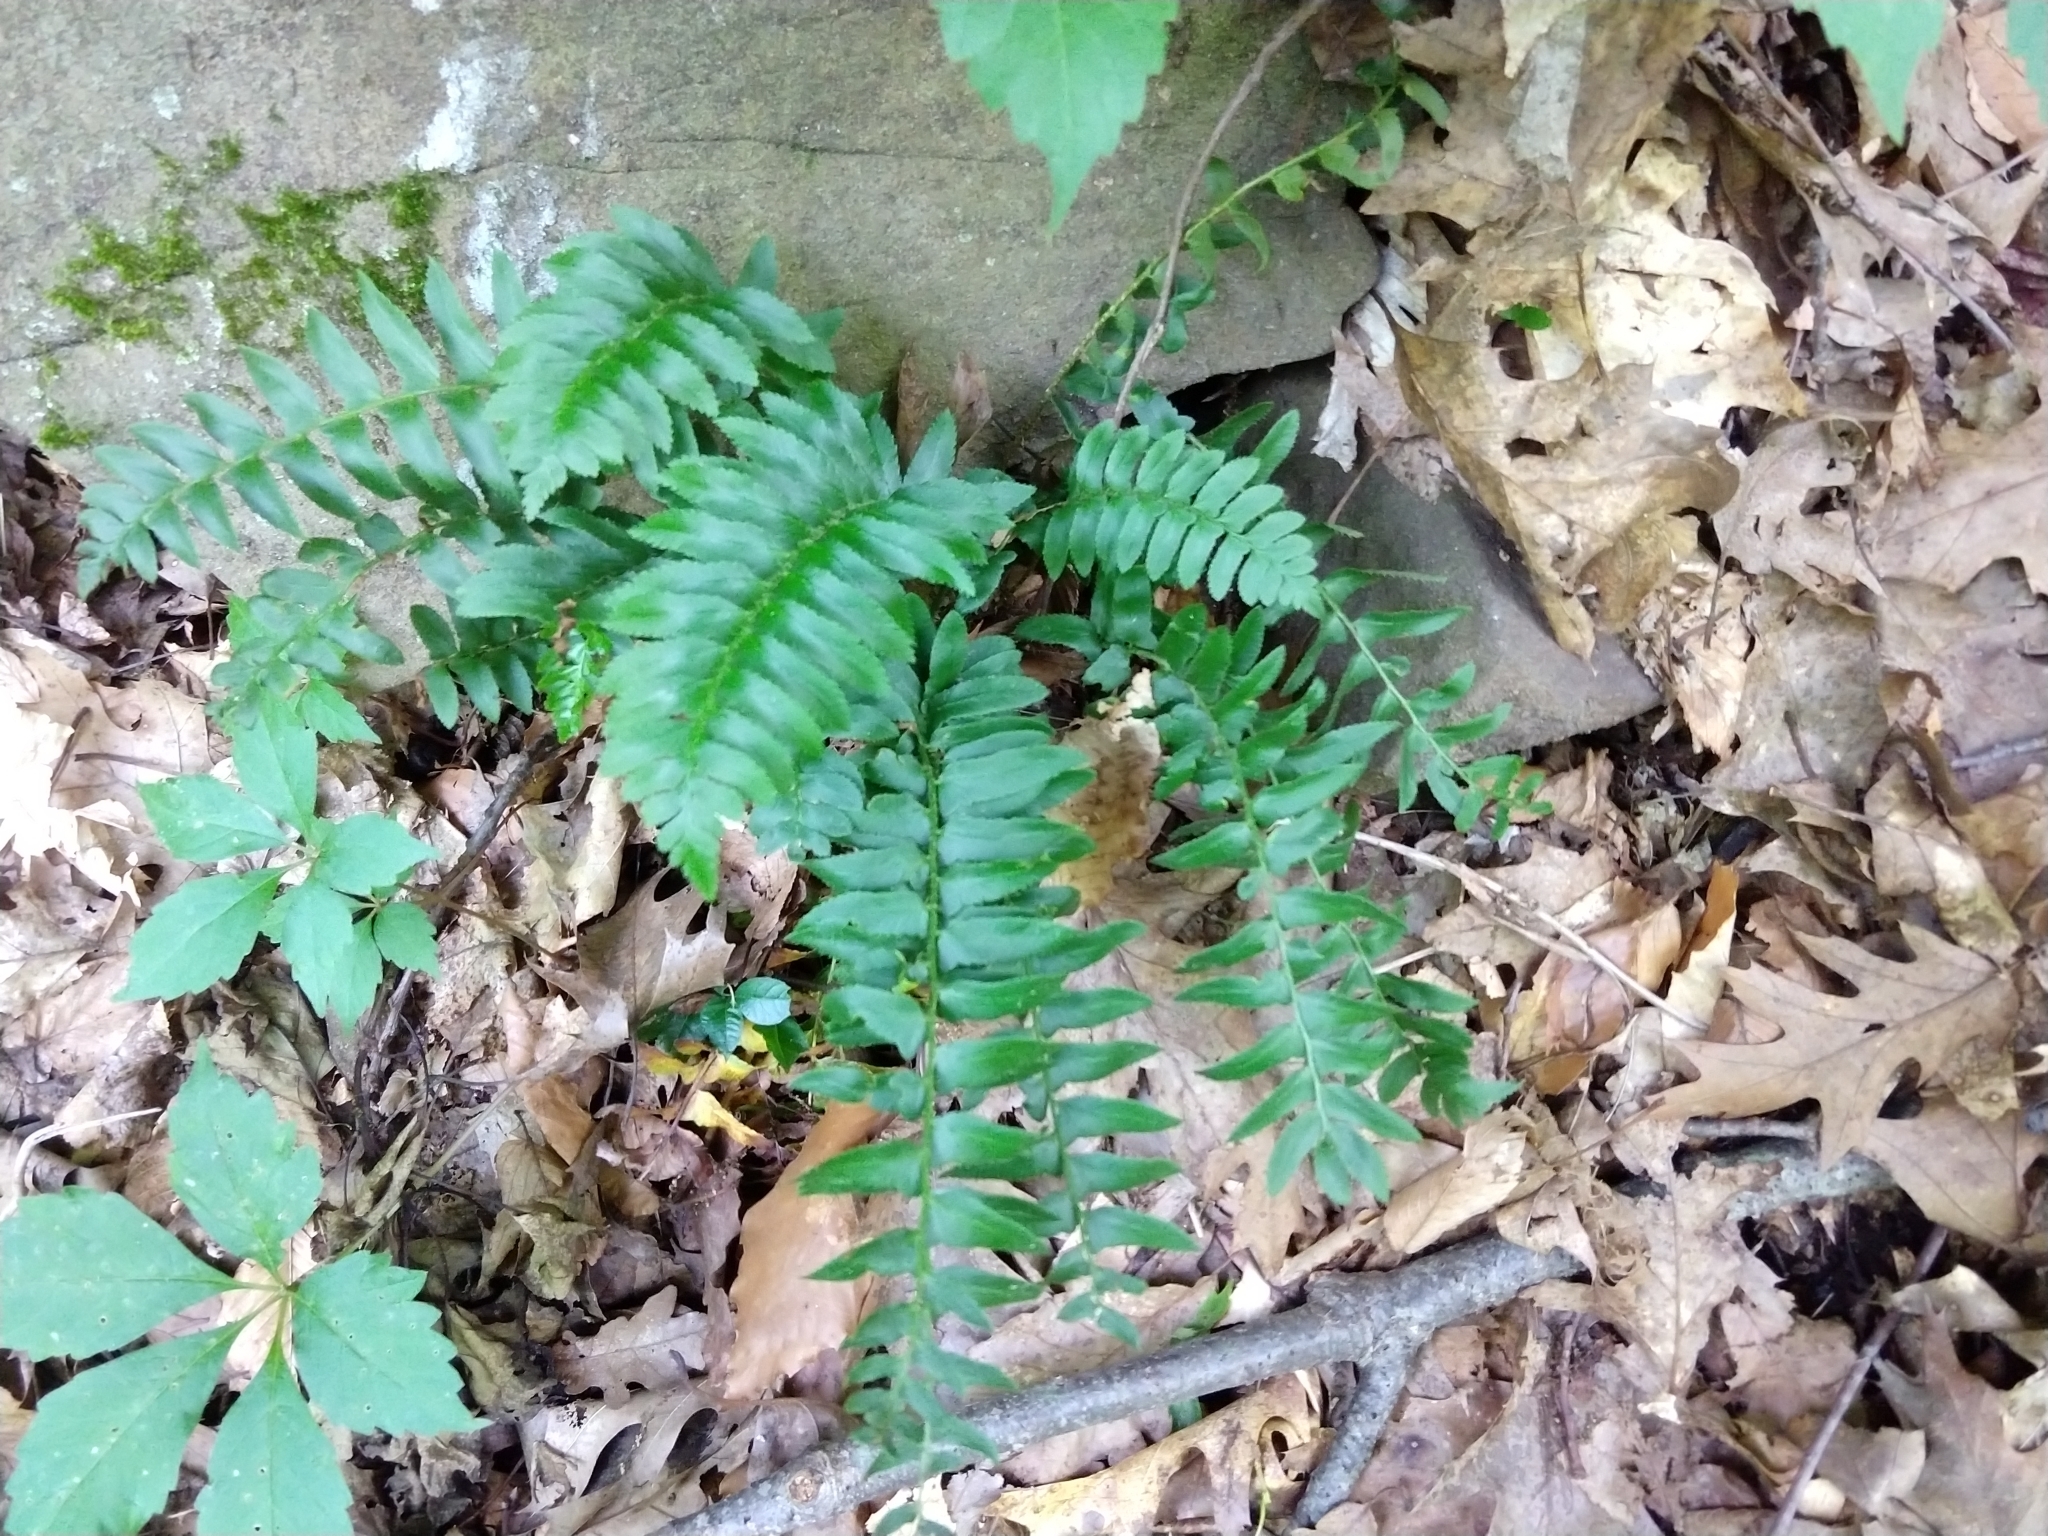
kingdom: Plantae
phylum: Tracheophyta
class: Polypodiopsida
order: Polypodiales
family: Dryopteridaceae
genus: Polystichum
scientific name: Polystichum acrostichoides
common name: Christmas fern
